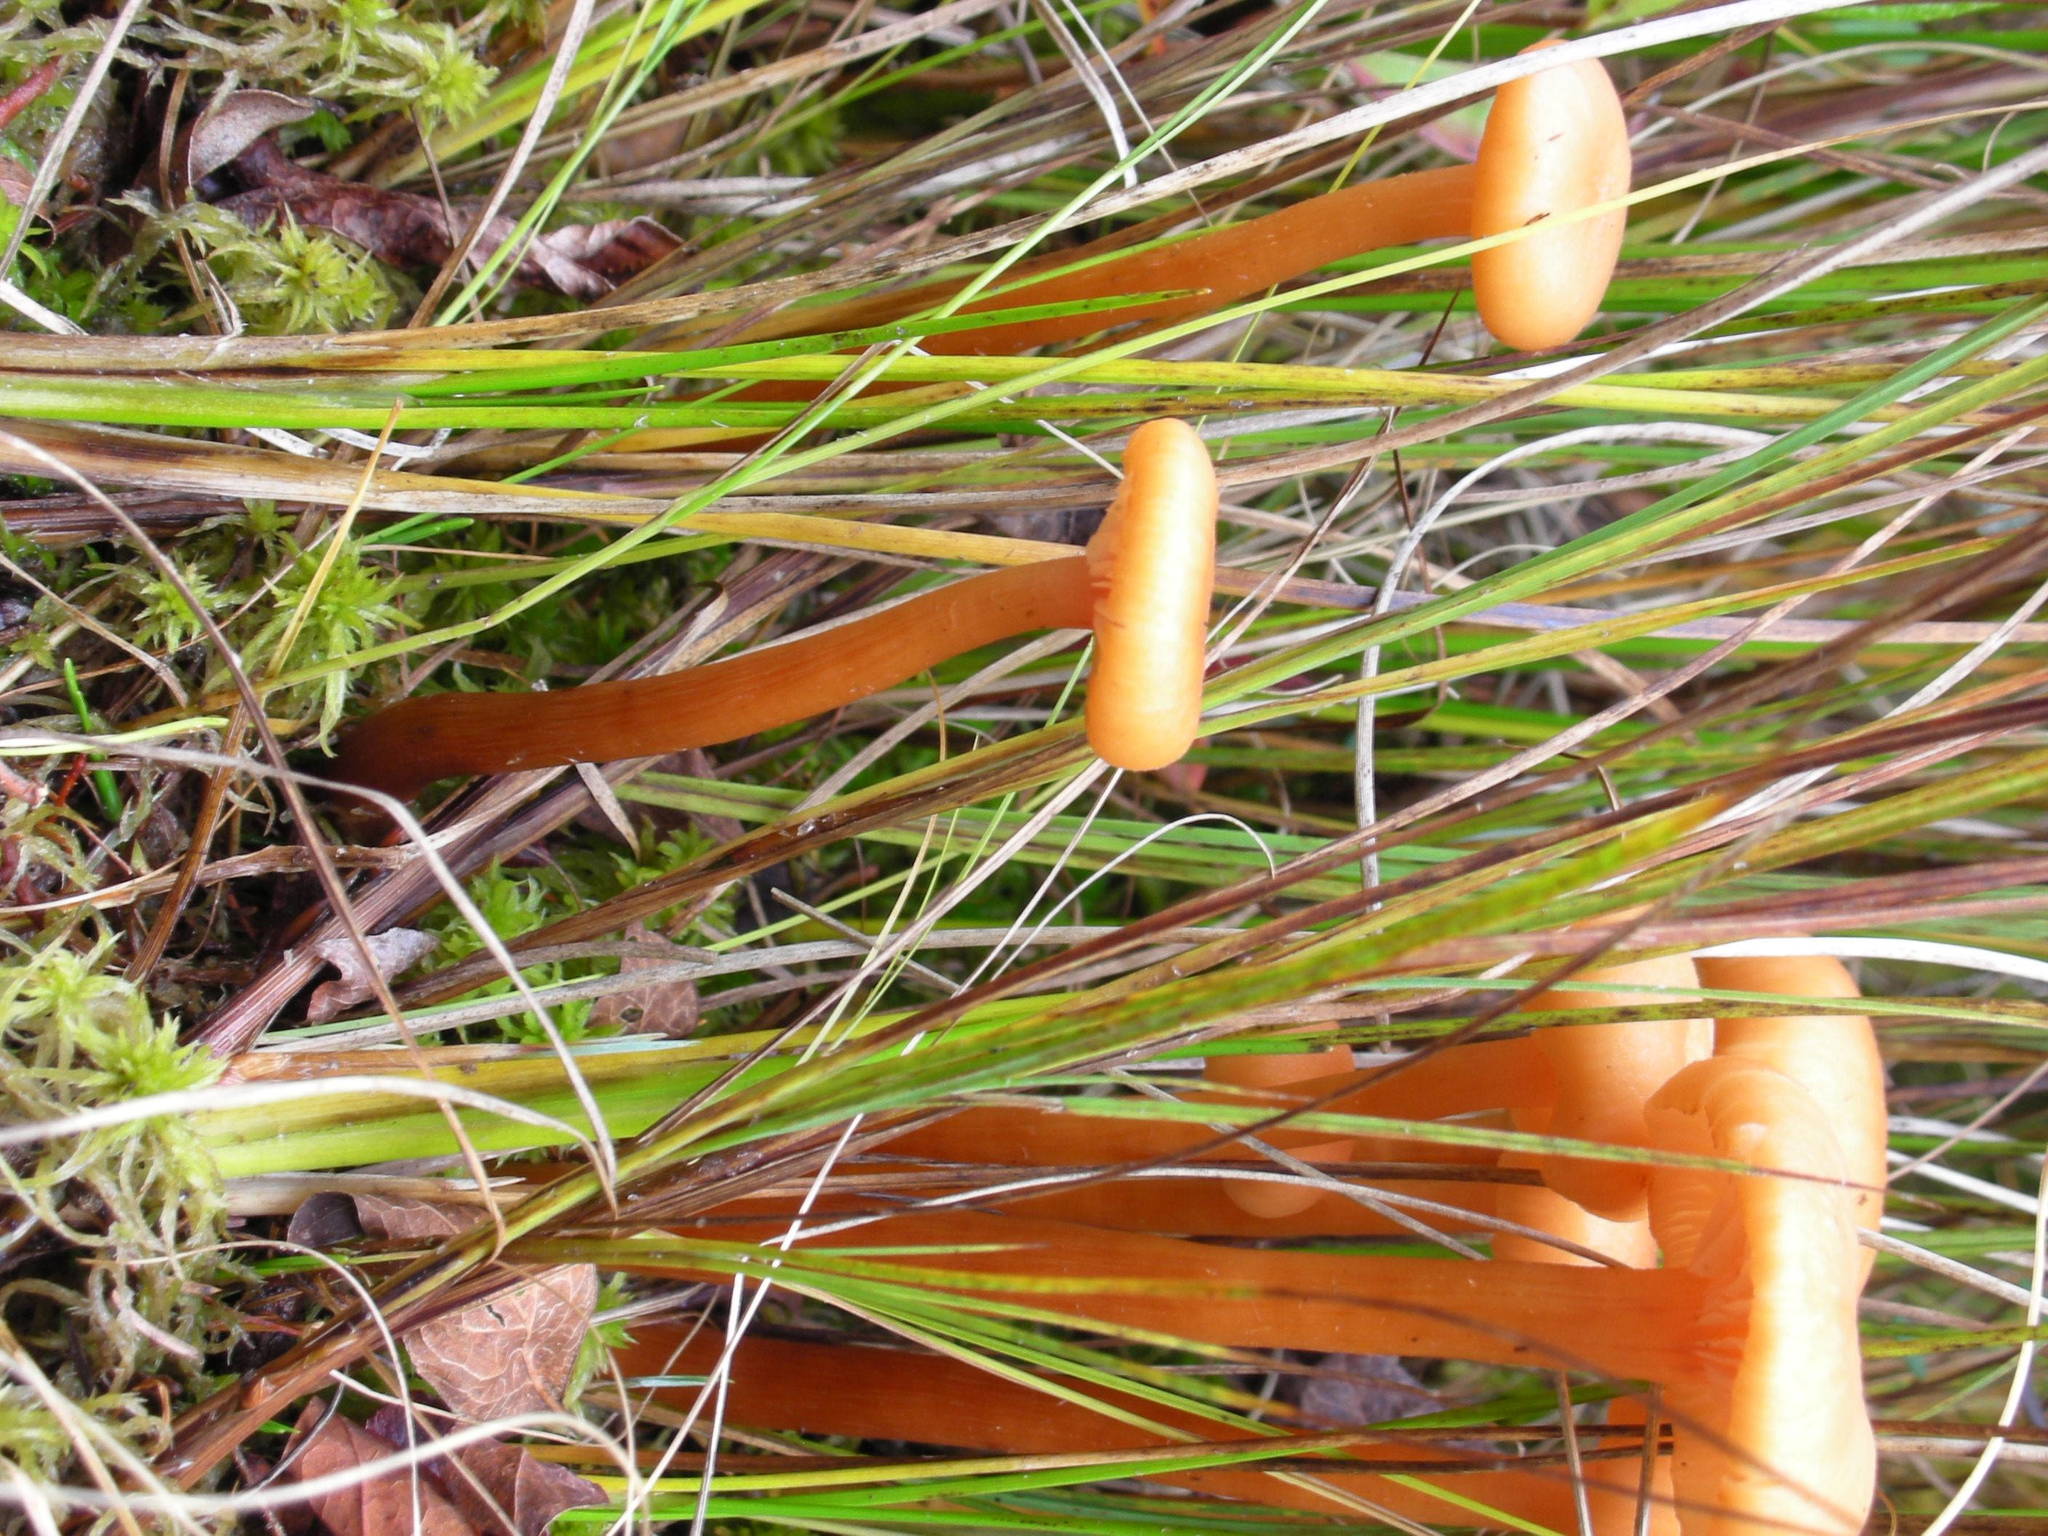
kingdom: Fungi
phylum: Basidiomycota
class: Agaricomycetes
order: Agaricales
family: Hydnangiaceae
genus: Laccaria
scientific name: Laccaria longipes
